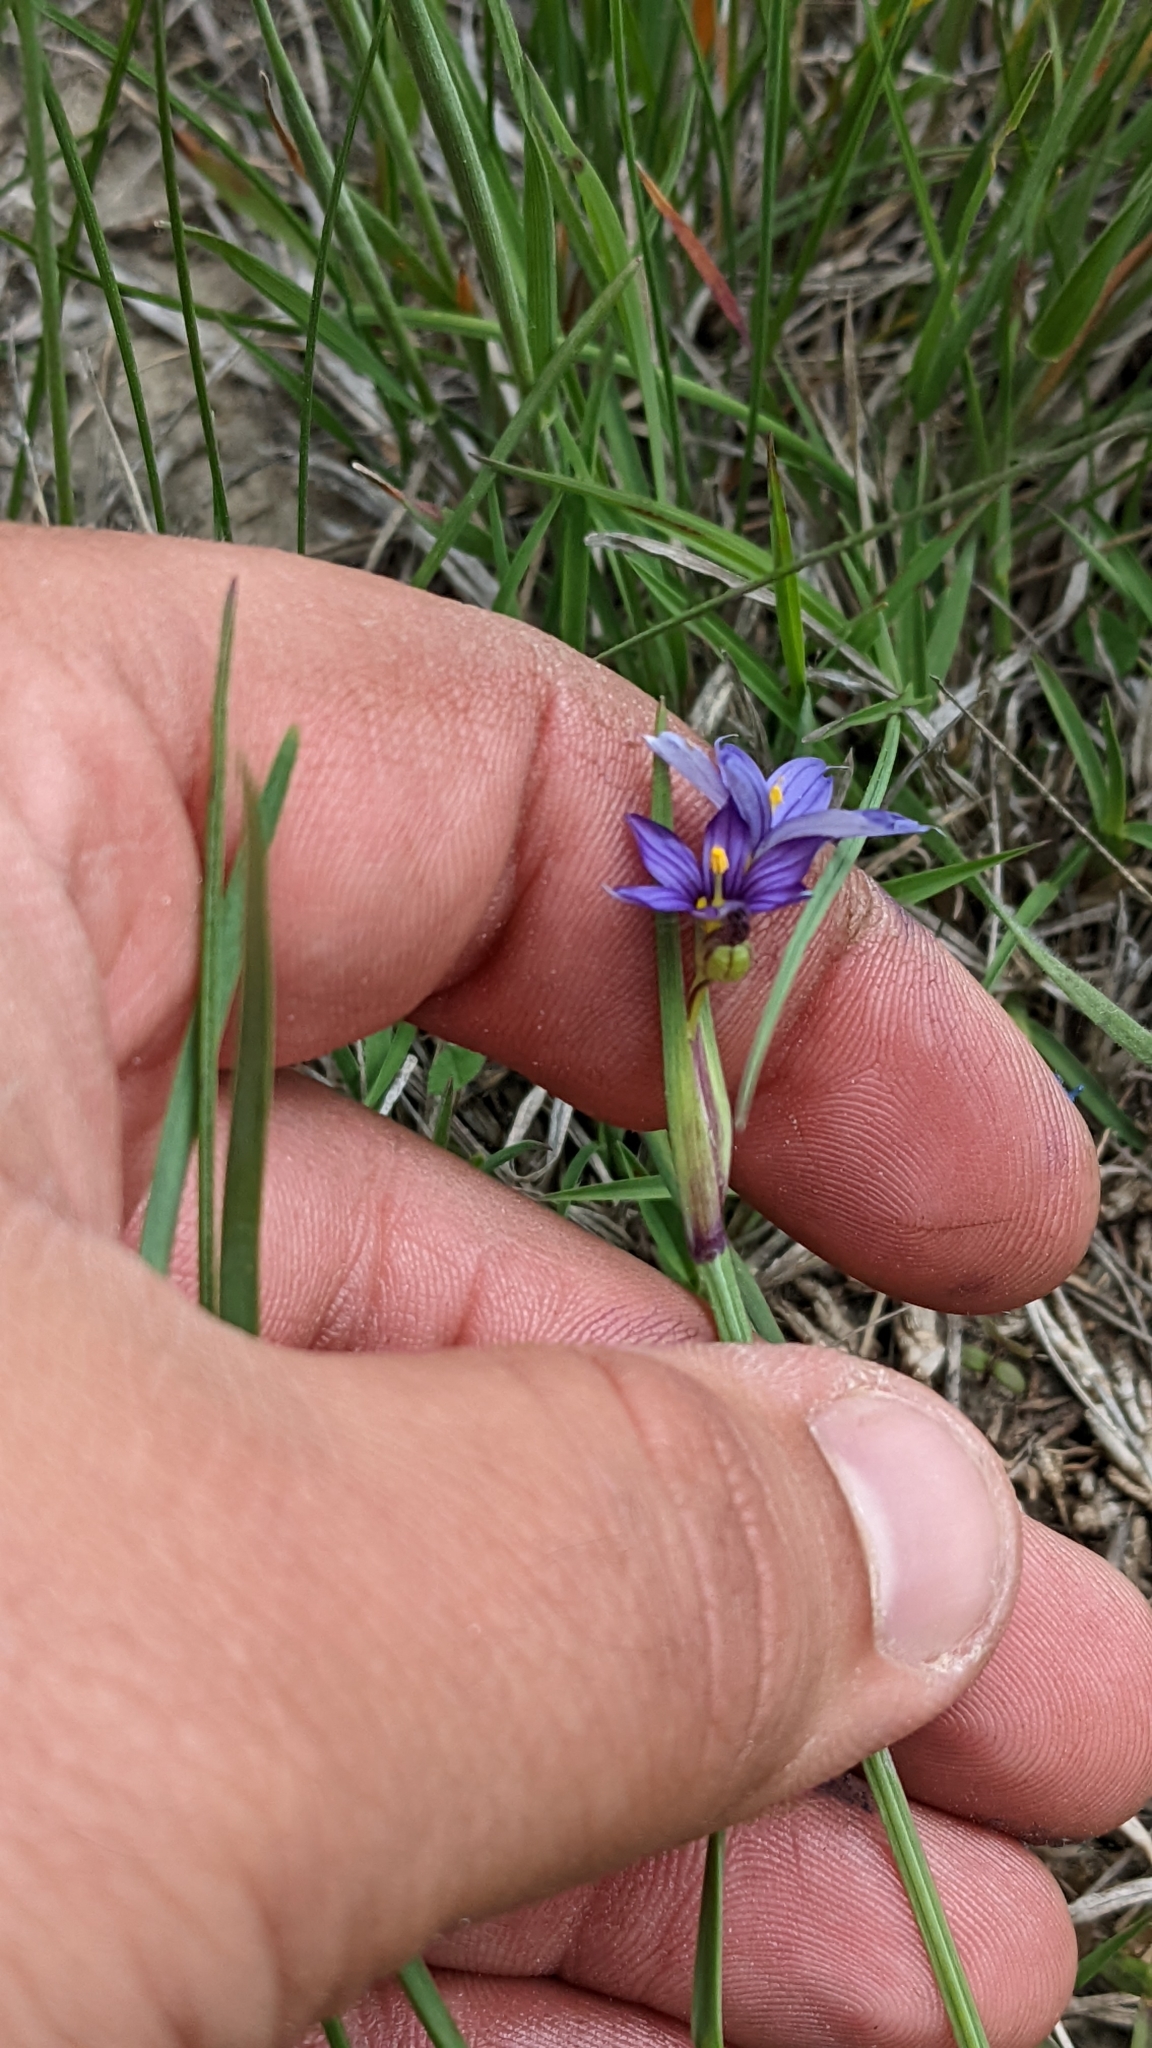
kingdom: Plantae
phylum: Tracheophyta
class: Liliopsida
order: Asparagales
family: Iridaceae
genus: Sisyrinchium
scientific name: Sisyrinchium montanum
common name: American blue-eyed-grass
